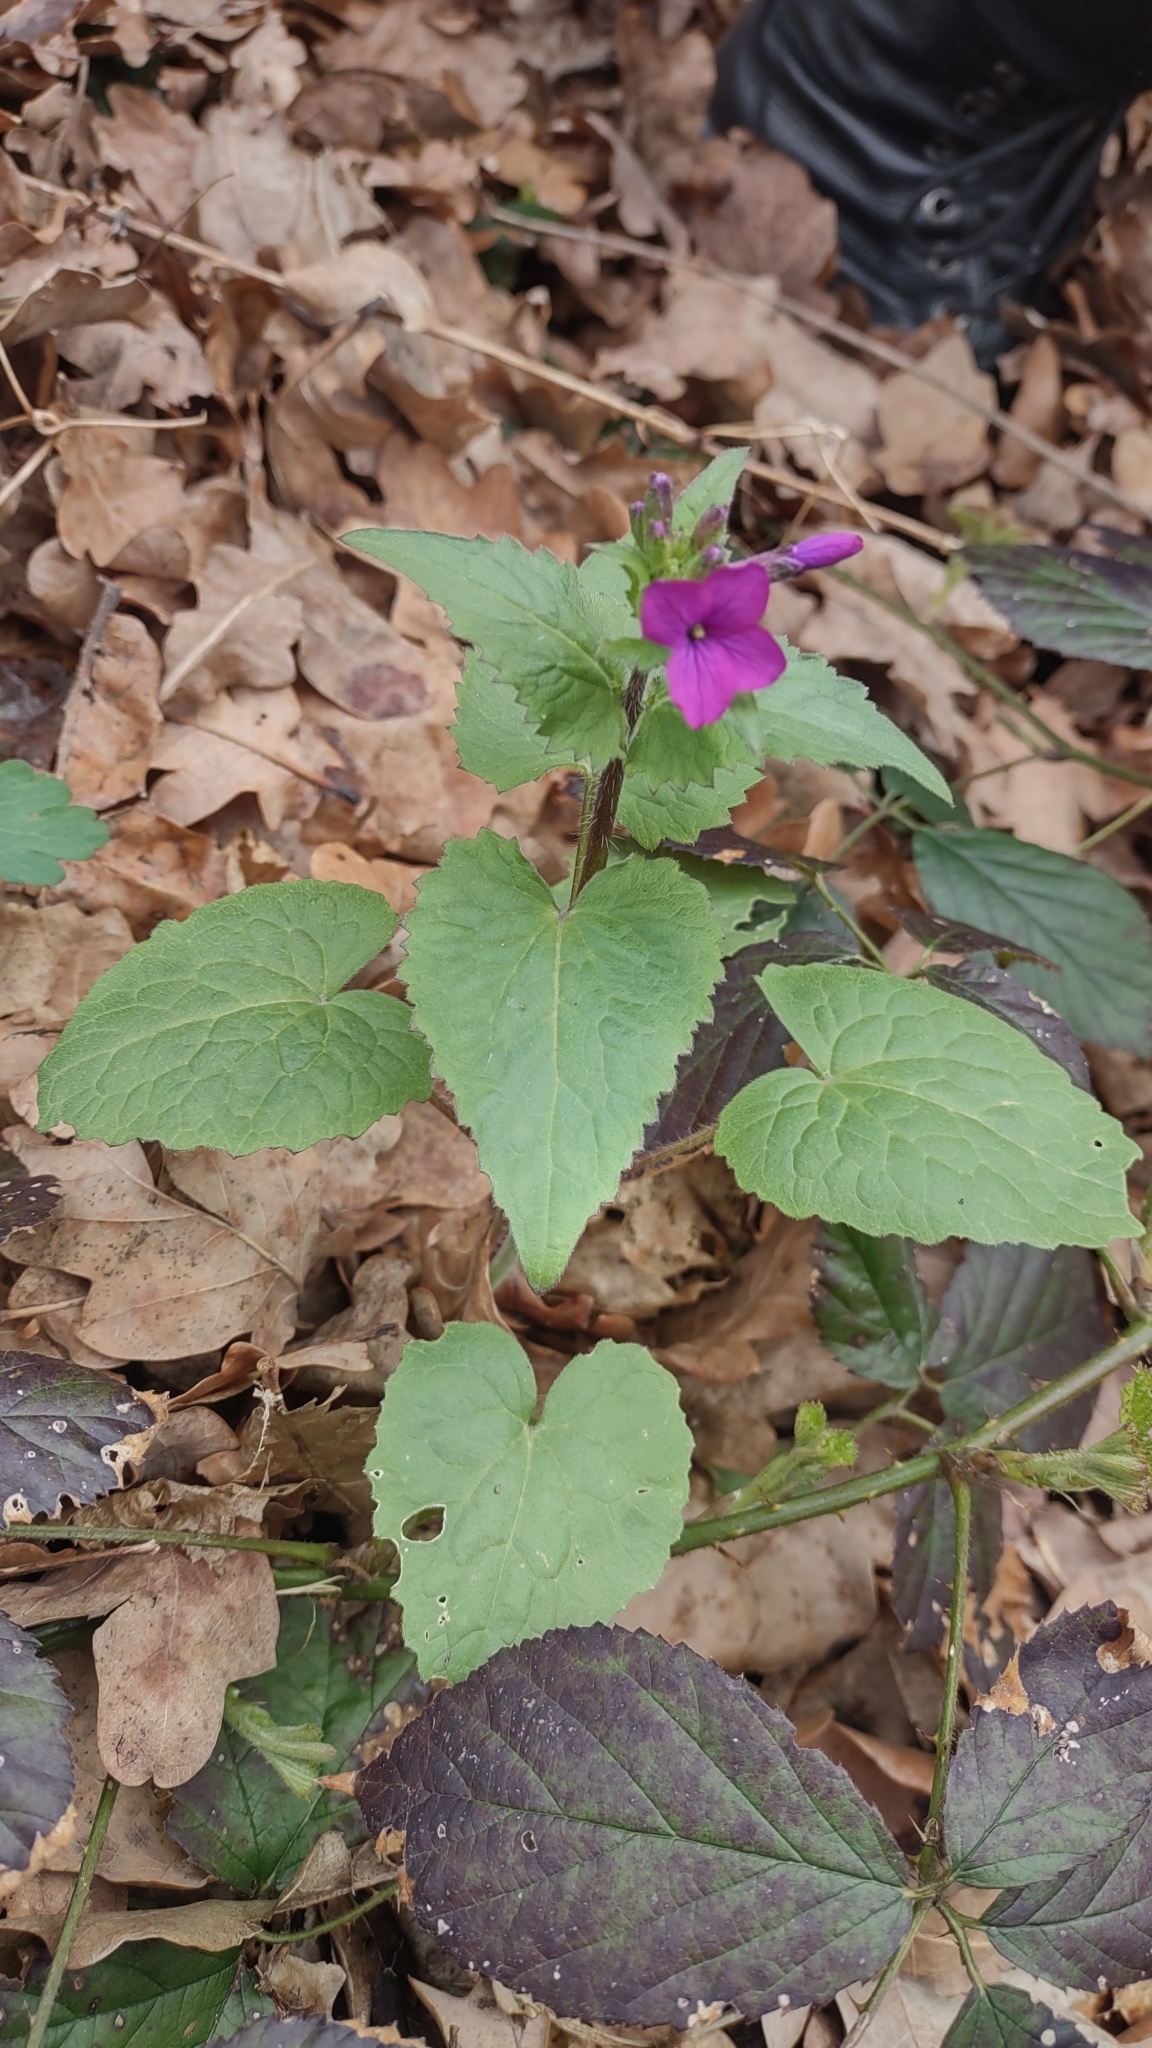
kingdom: Plantae
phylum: Tracheophyta
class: Magnoliopsida
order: Brassicales
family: Brassicaceae
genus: Lunaria
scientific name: Lunaria annua
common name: Honesty
